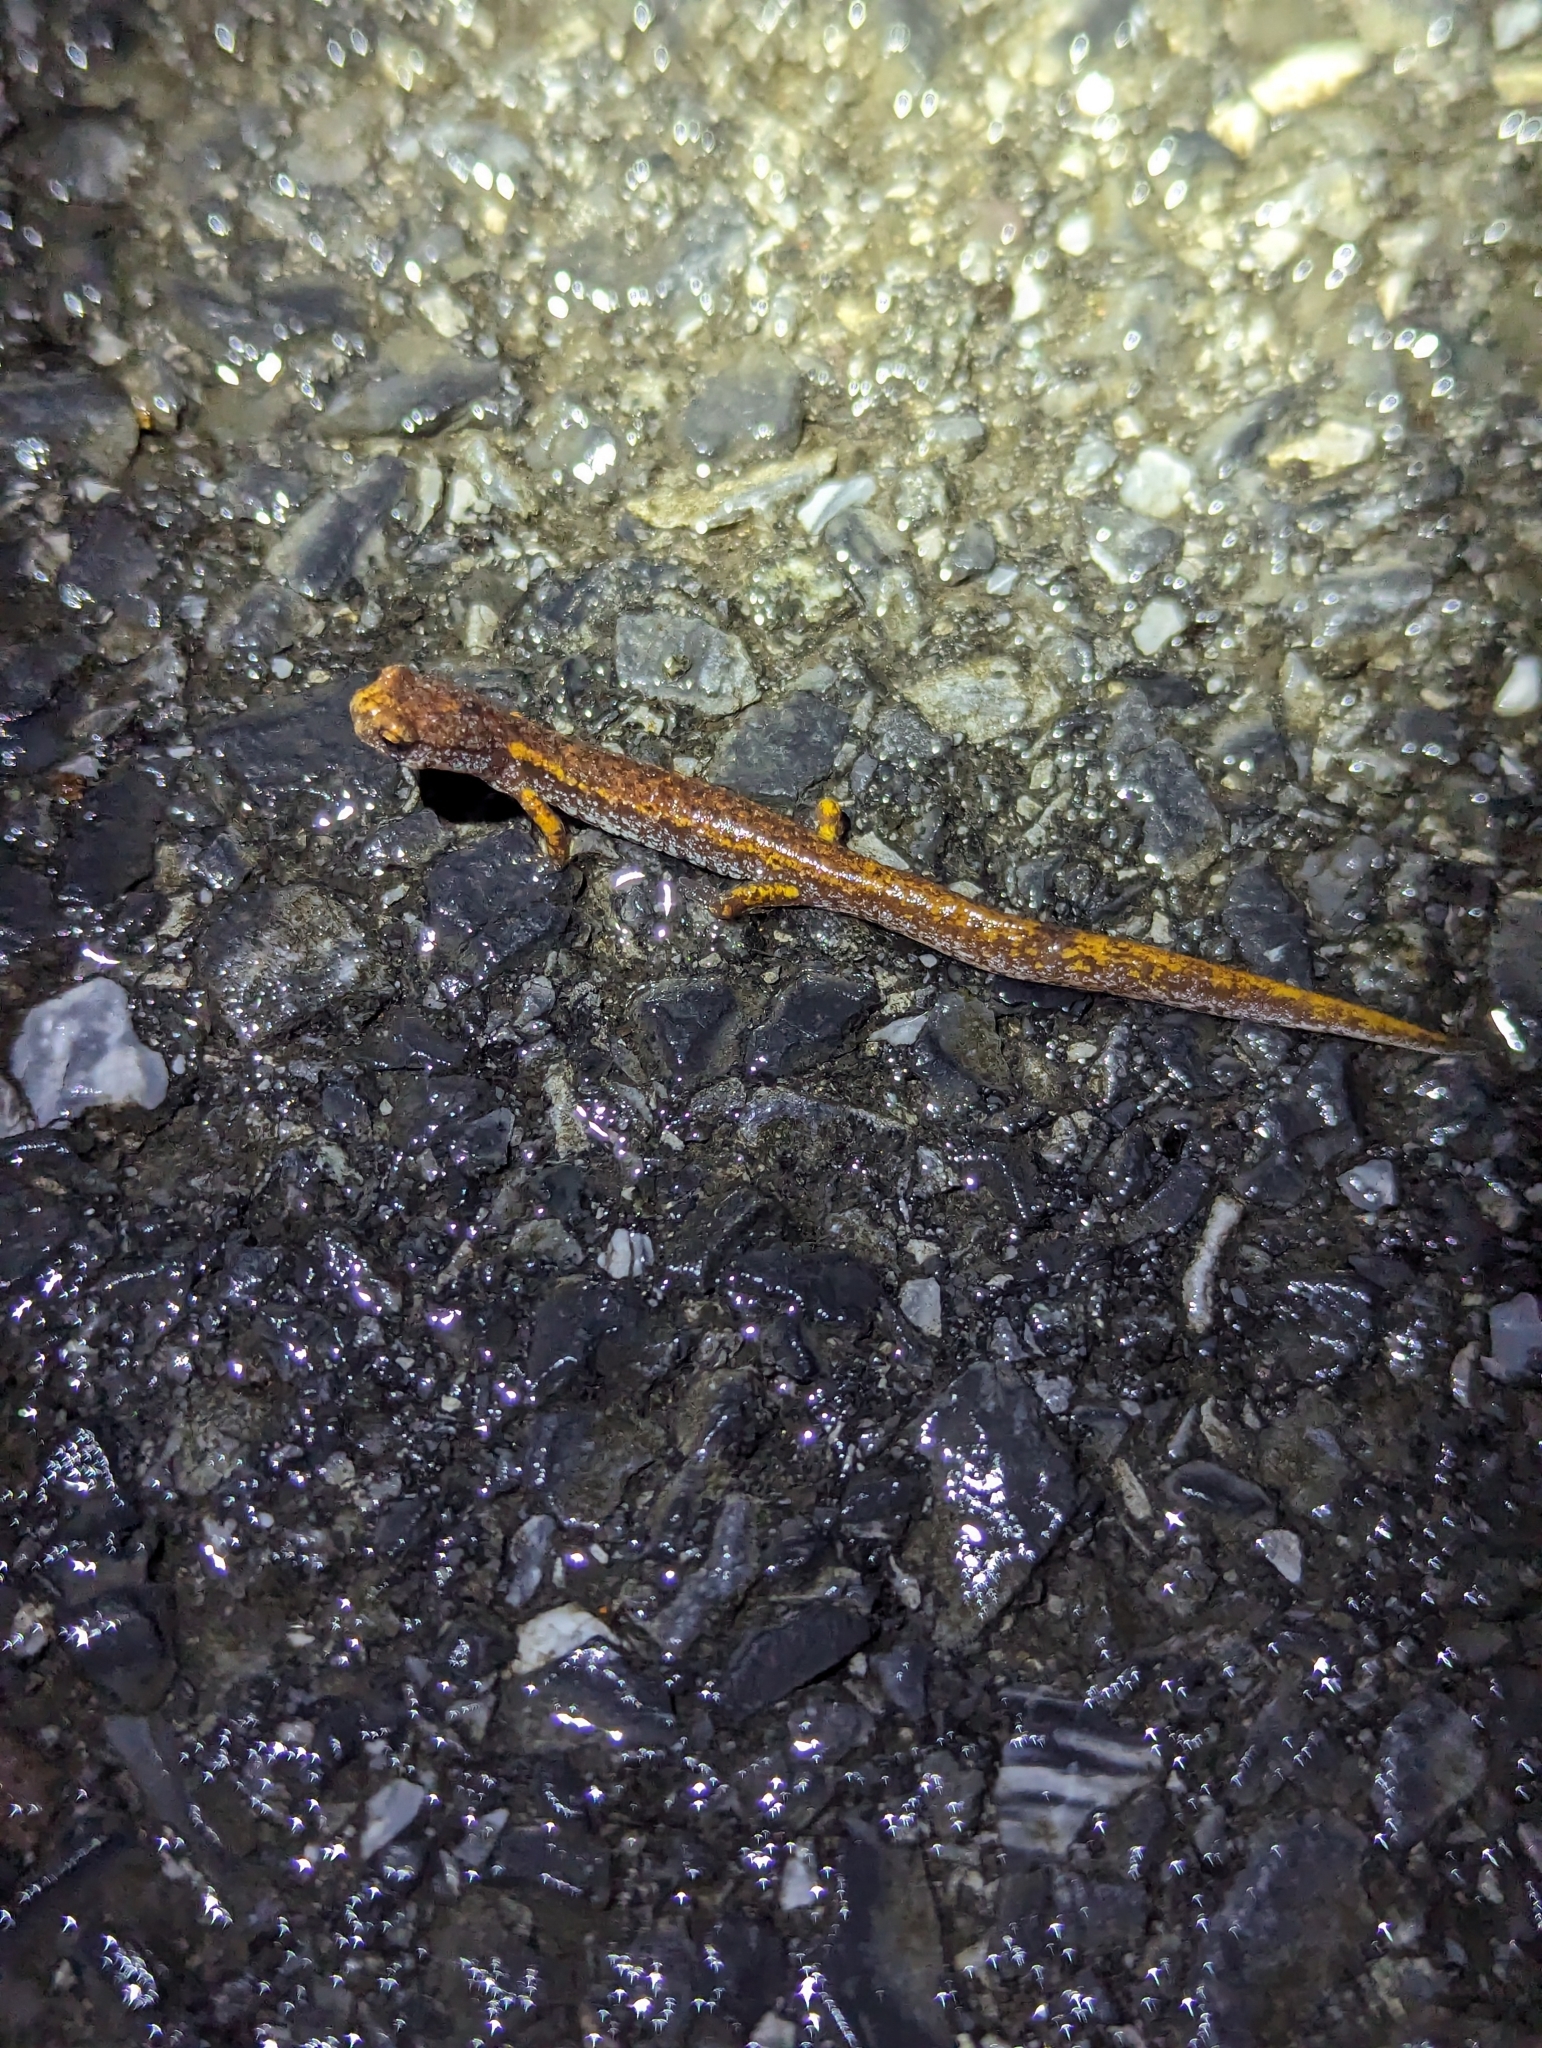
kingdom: Animalia
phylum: Chordata
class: Amphibia
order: Caudata
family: Plethodontidae
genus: Hemidactylium
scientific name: Hemidactylium scutatum
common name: Four-toed salamander
